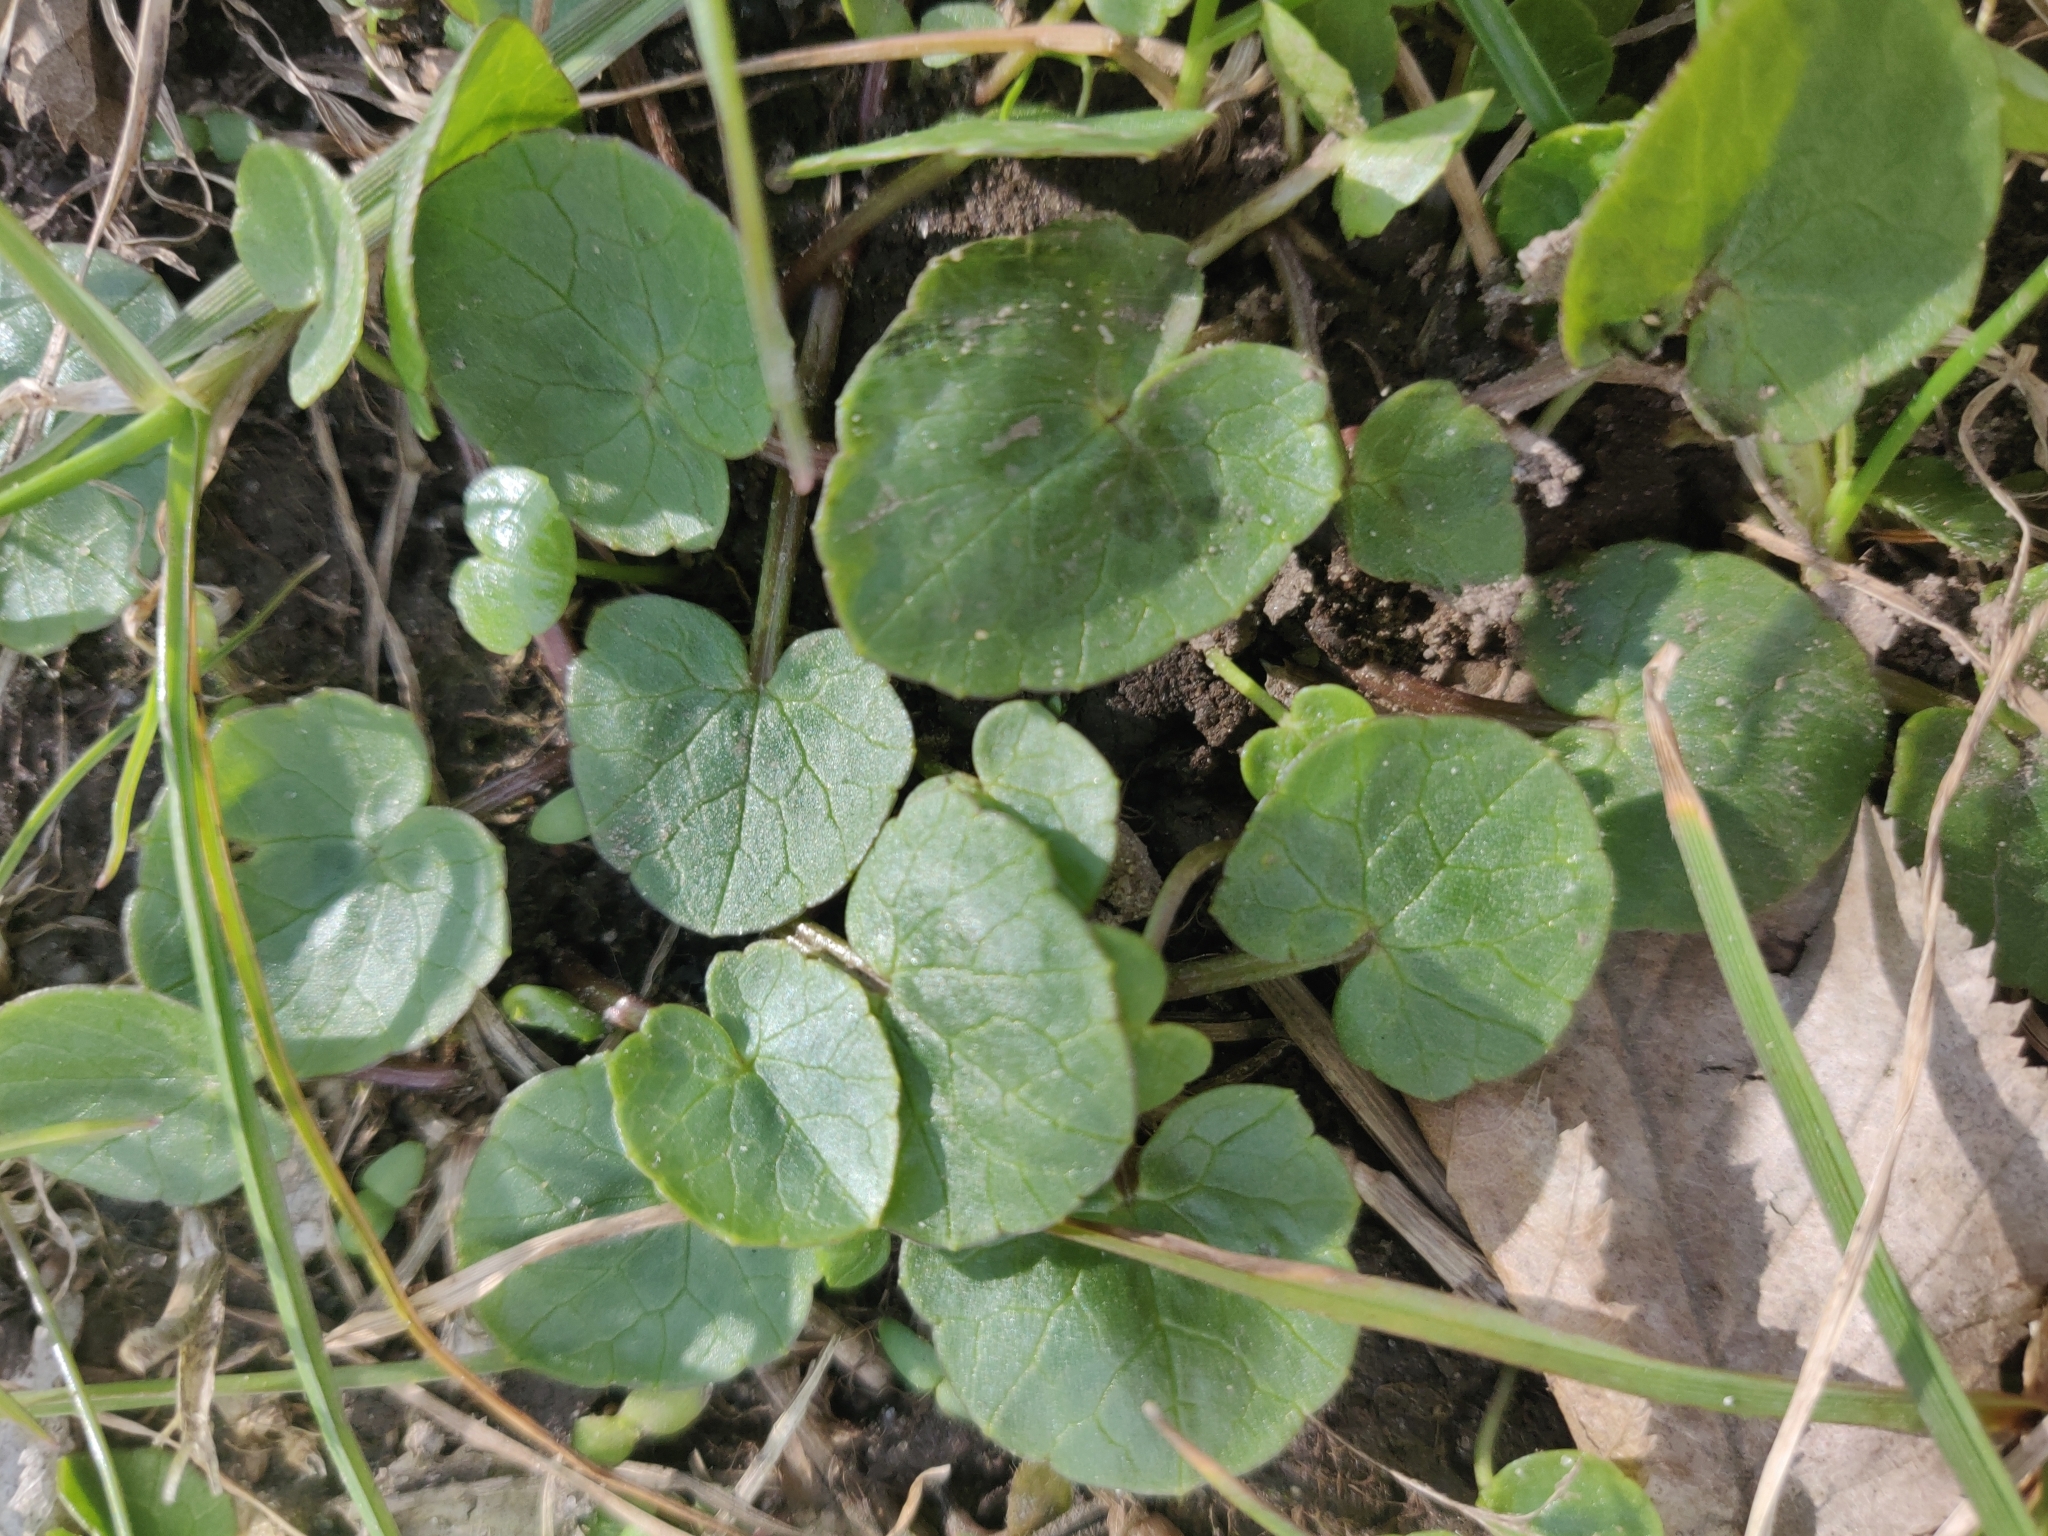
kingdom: Plantae
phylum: Tracheophyta
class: Magnoliopsida
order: Ranunculales
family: Ranunculaceae
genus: Ficaria
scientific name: Ficaria verna
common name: Lesser celandine
